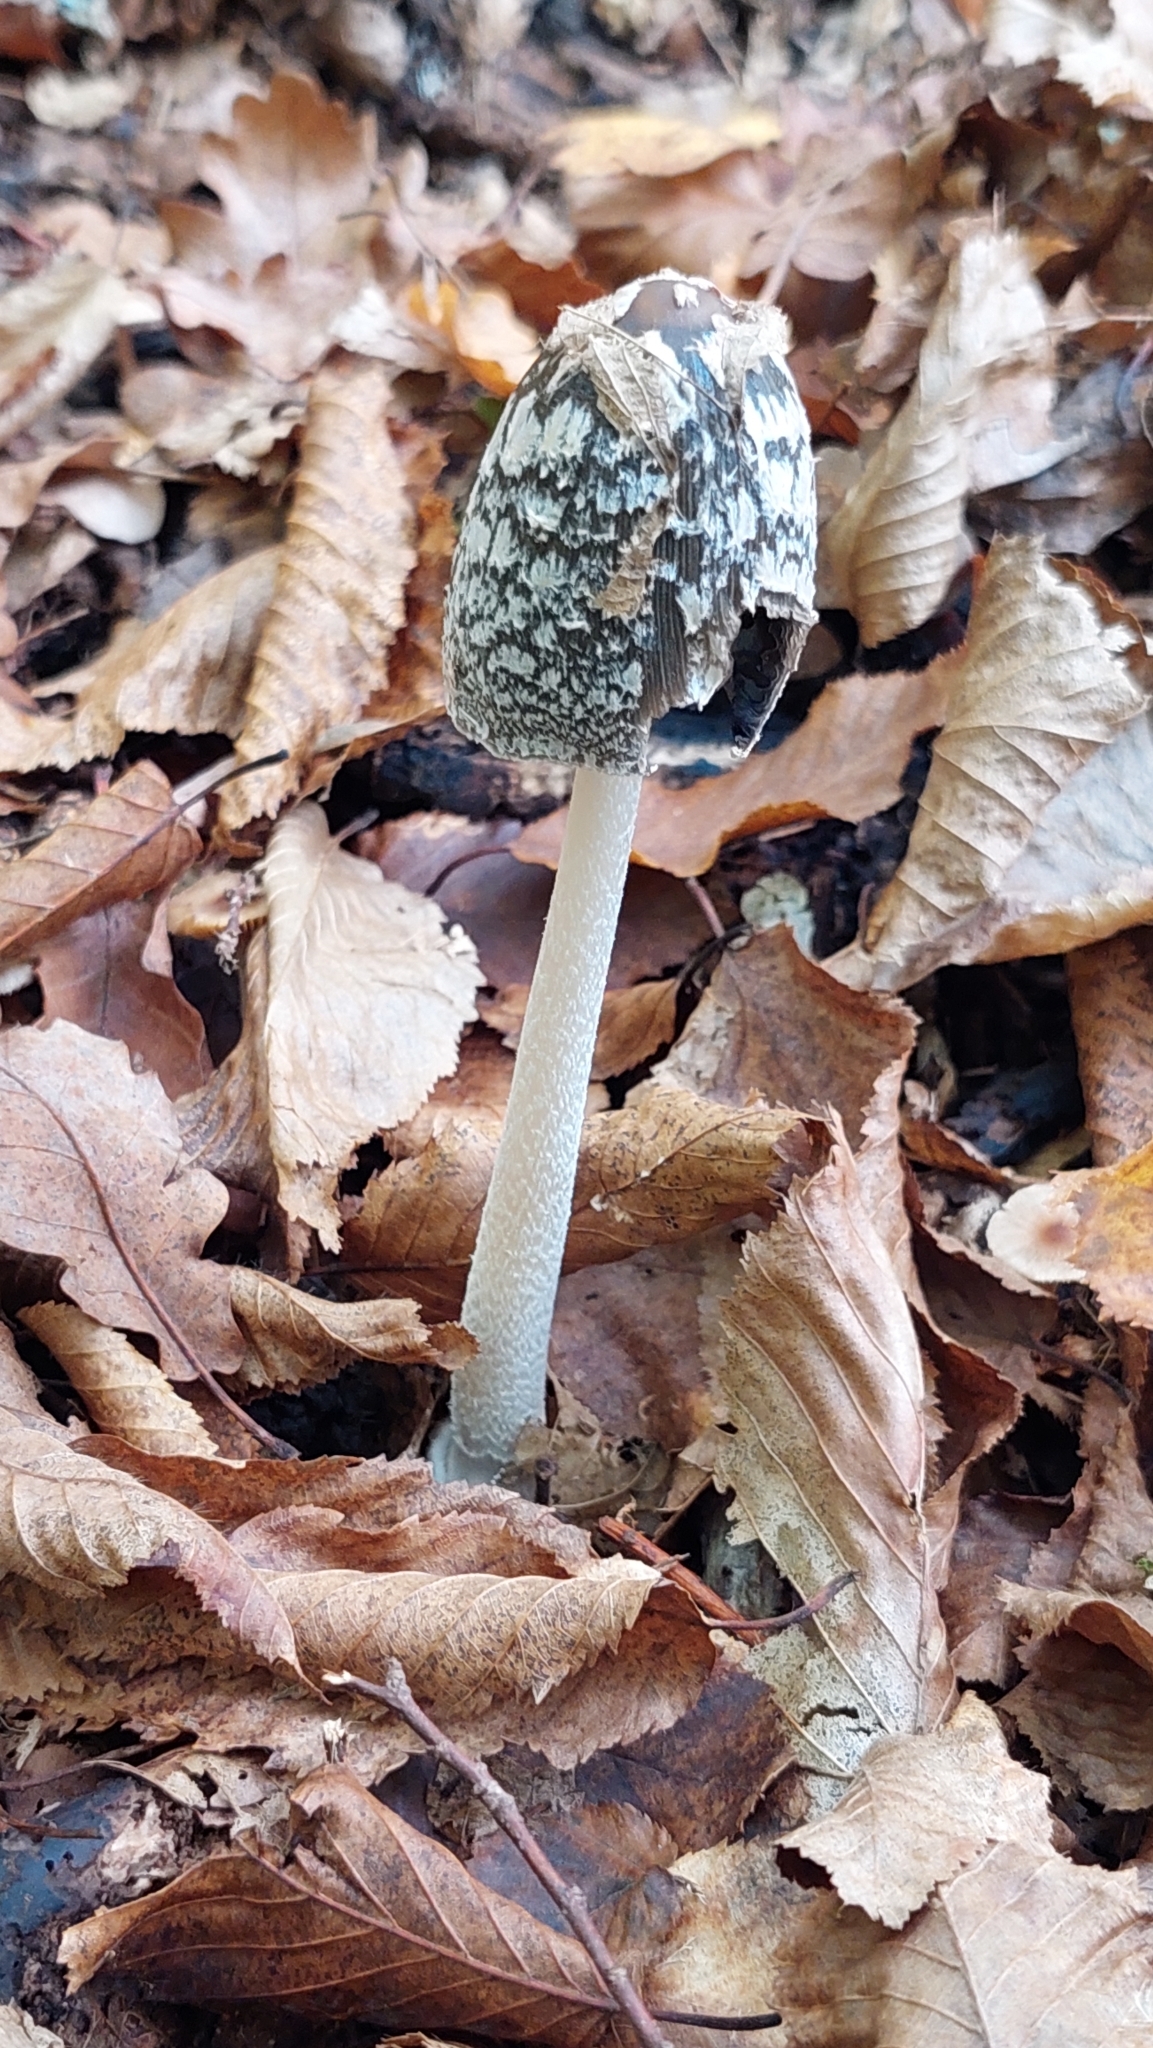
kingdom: Fungi
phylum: Basidiomycota
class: Agaricomycetes
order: Agaricales
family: Psathyrellaceae
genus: Coprinopsis
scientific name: Coprinopsis picacea
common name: Magpie inkcap
